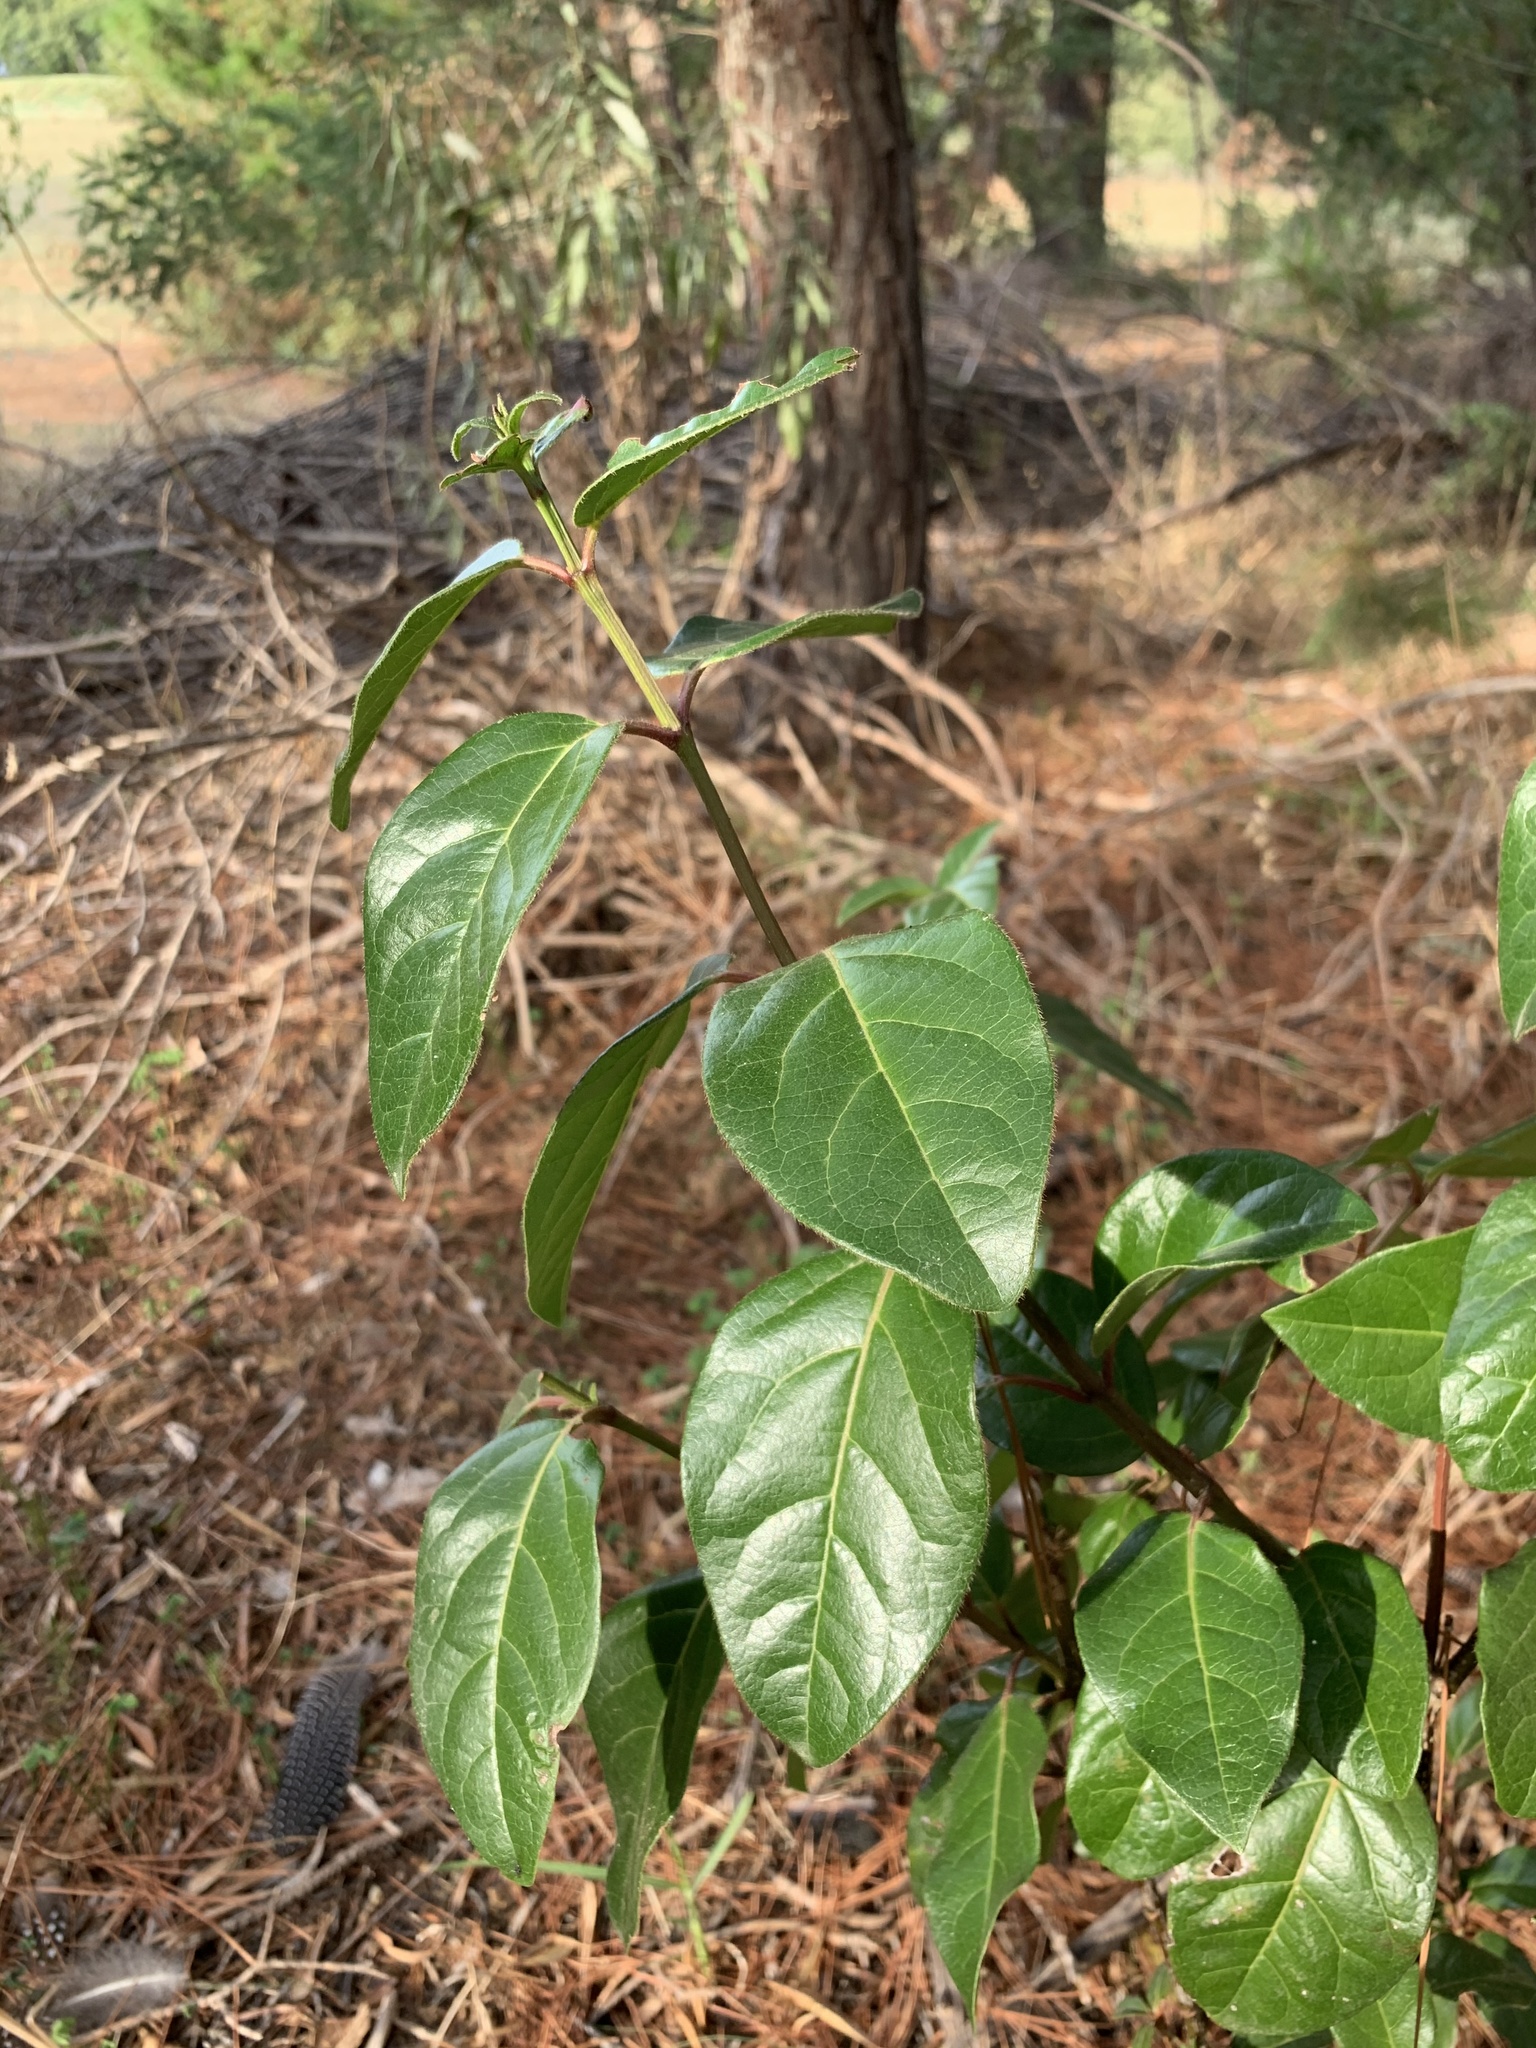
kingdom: Plantae
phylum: Tracheophyta
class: Magnoliopsida
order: Dipsacales
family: Viburnaceae
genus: Viburnum
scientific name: Viburnum tinus
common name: Laurustinus
